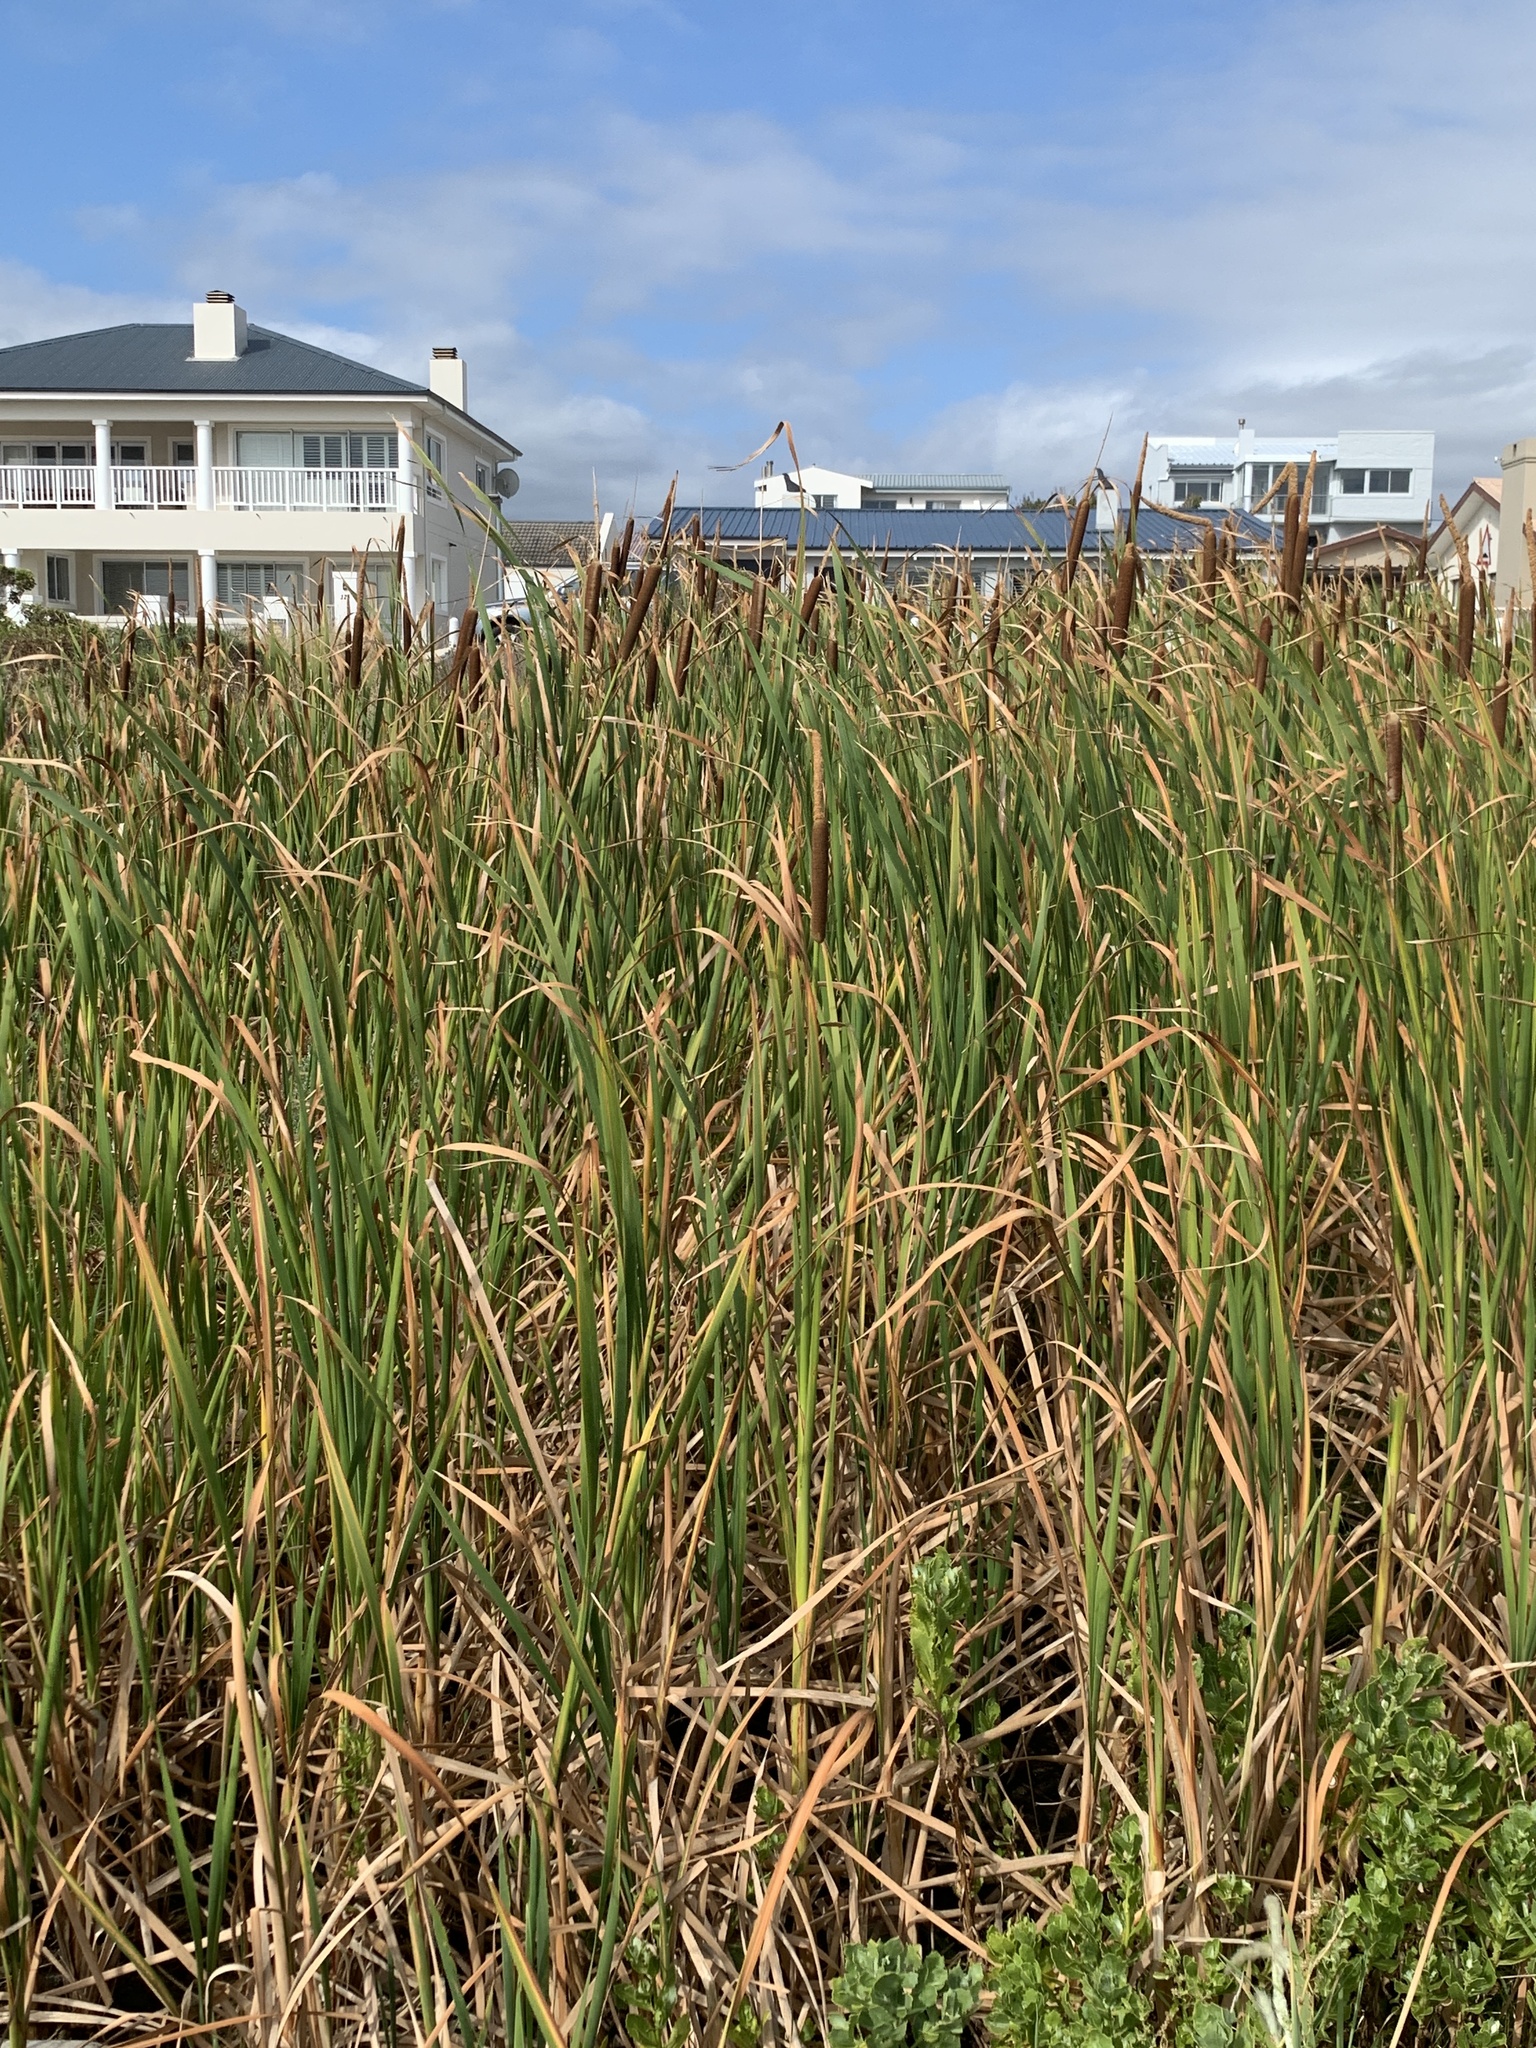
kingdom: Plantae
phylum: Tracheophyta
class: Liliopsida
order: Poales
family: Typhaceae
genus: Typha
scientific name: Typha capensis
